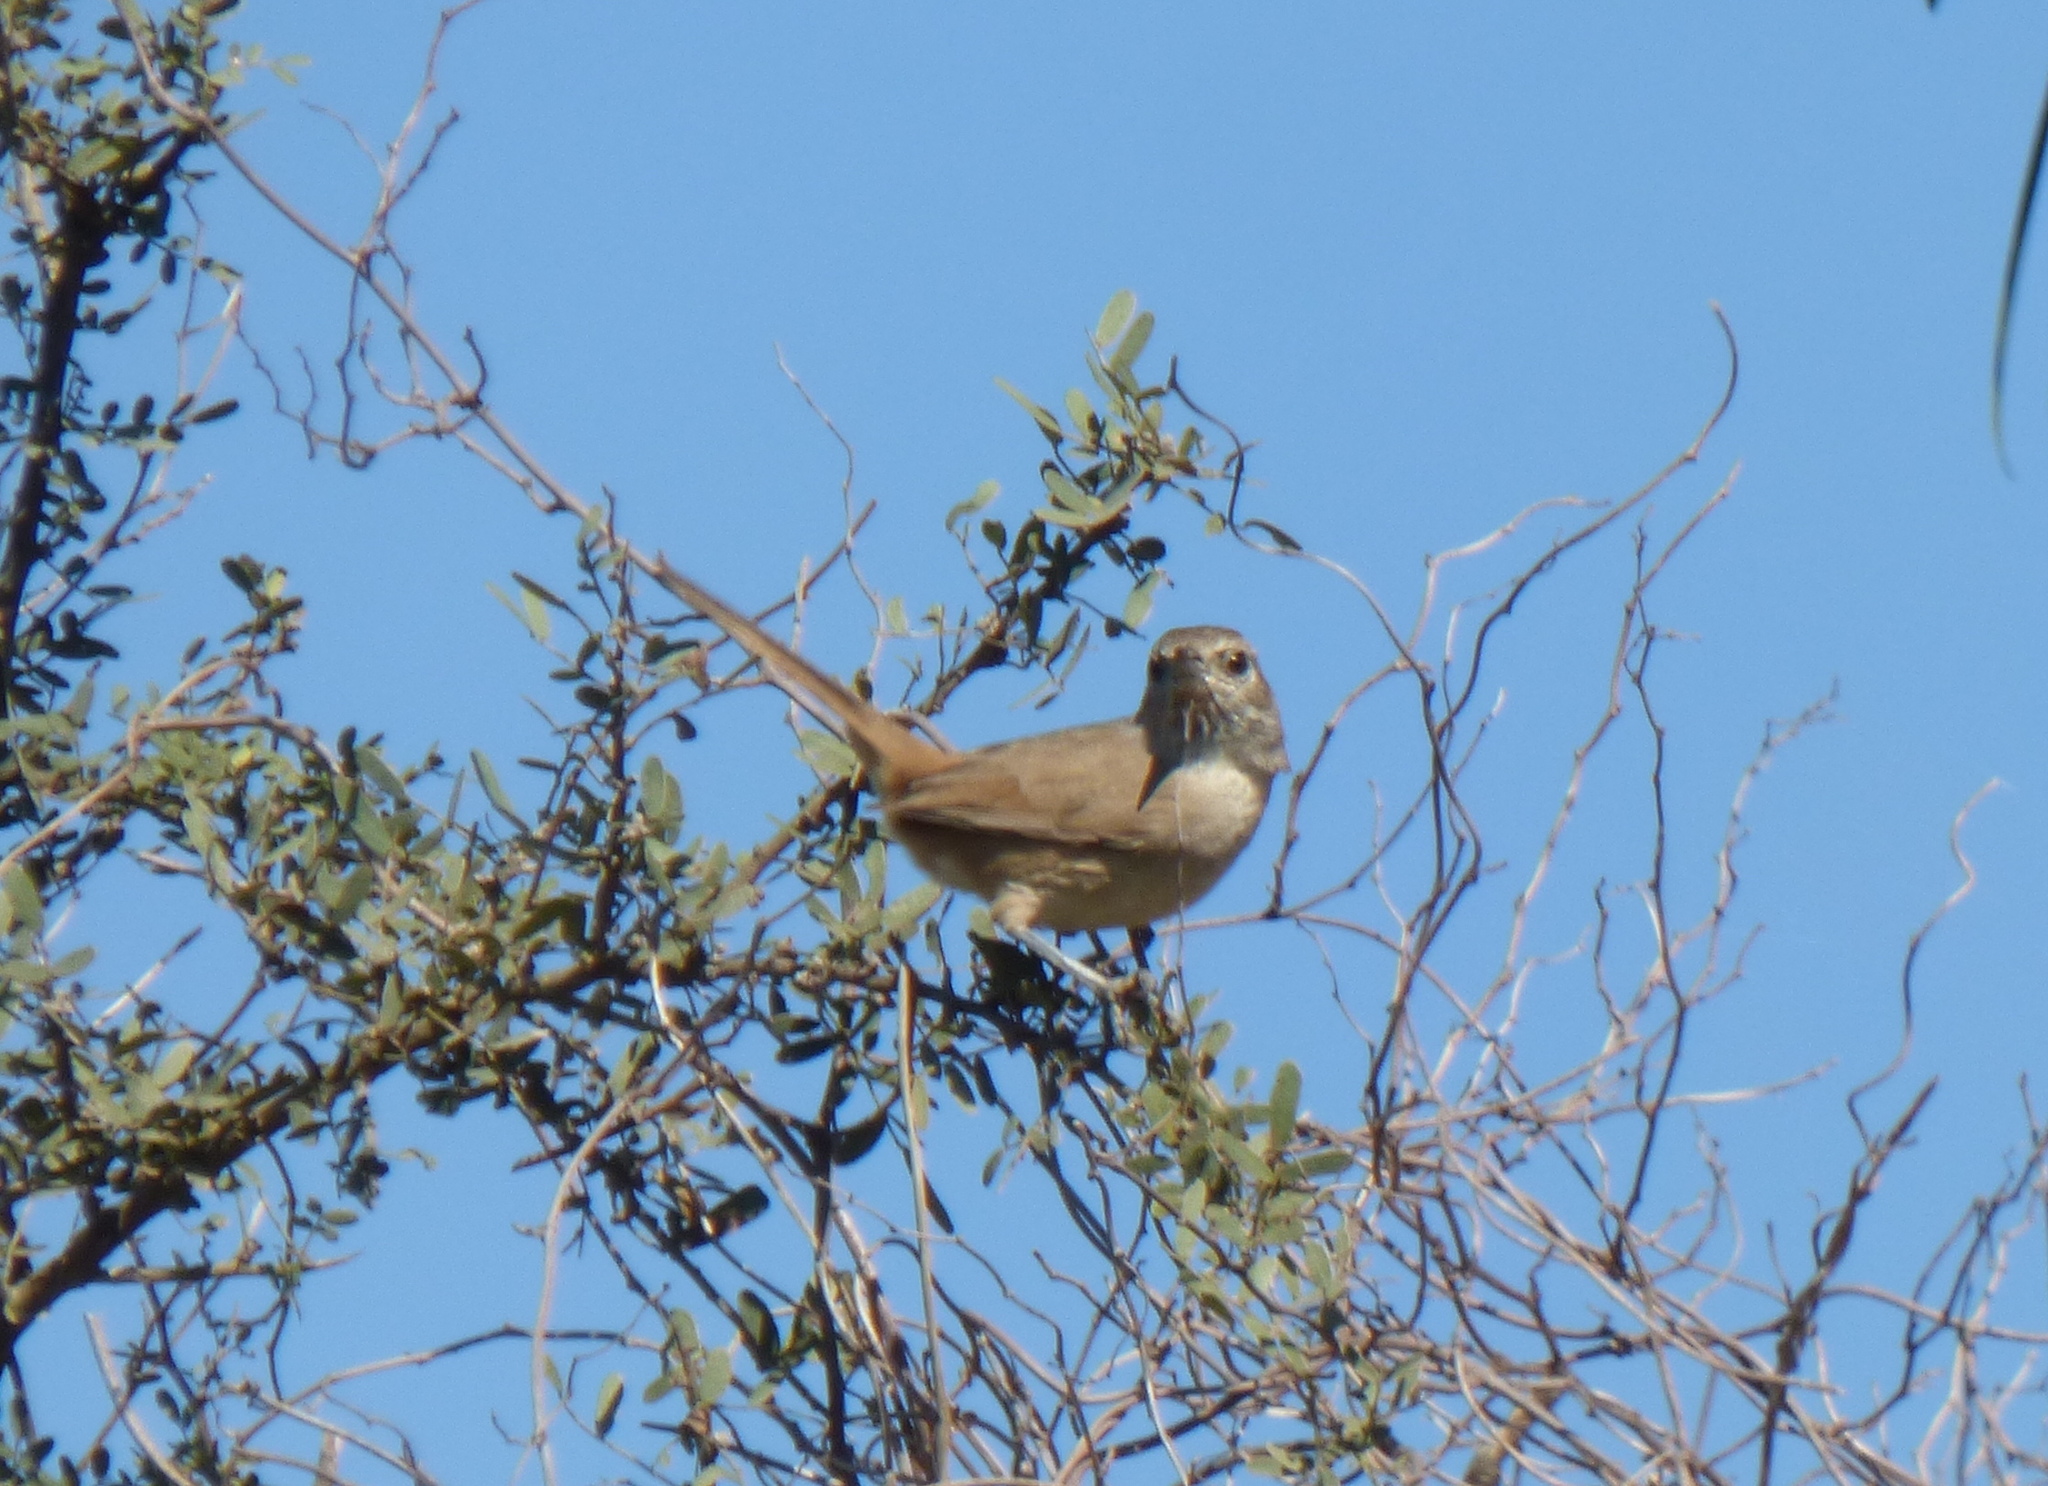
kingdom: Animalia
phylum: Chordata
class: Aves
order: Passeriformes
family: Furnariidae
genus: Asthenes
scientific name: Asthenes baeri
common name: Short-billed canastero
